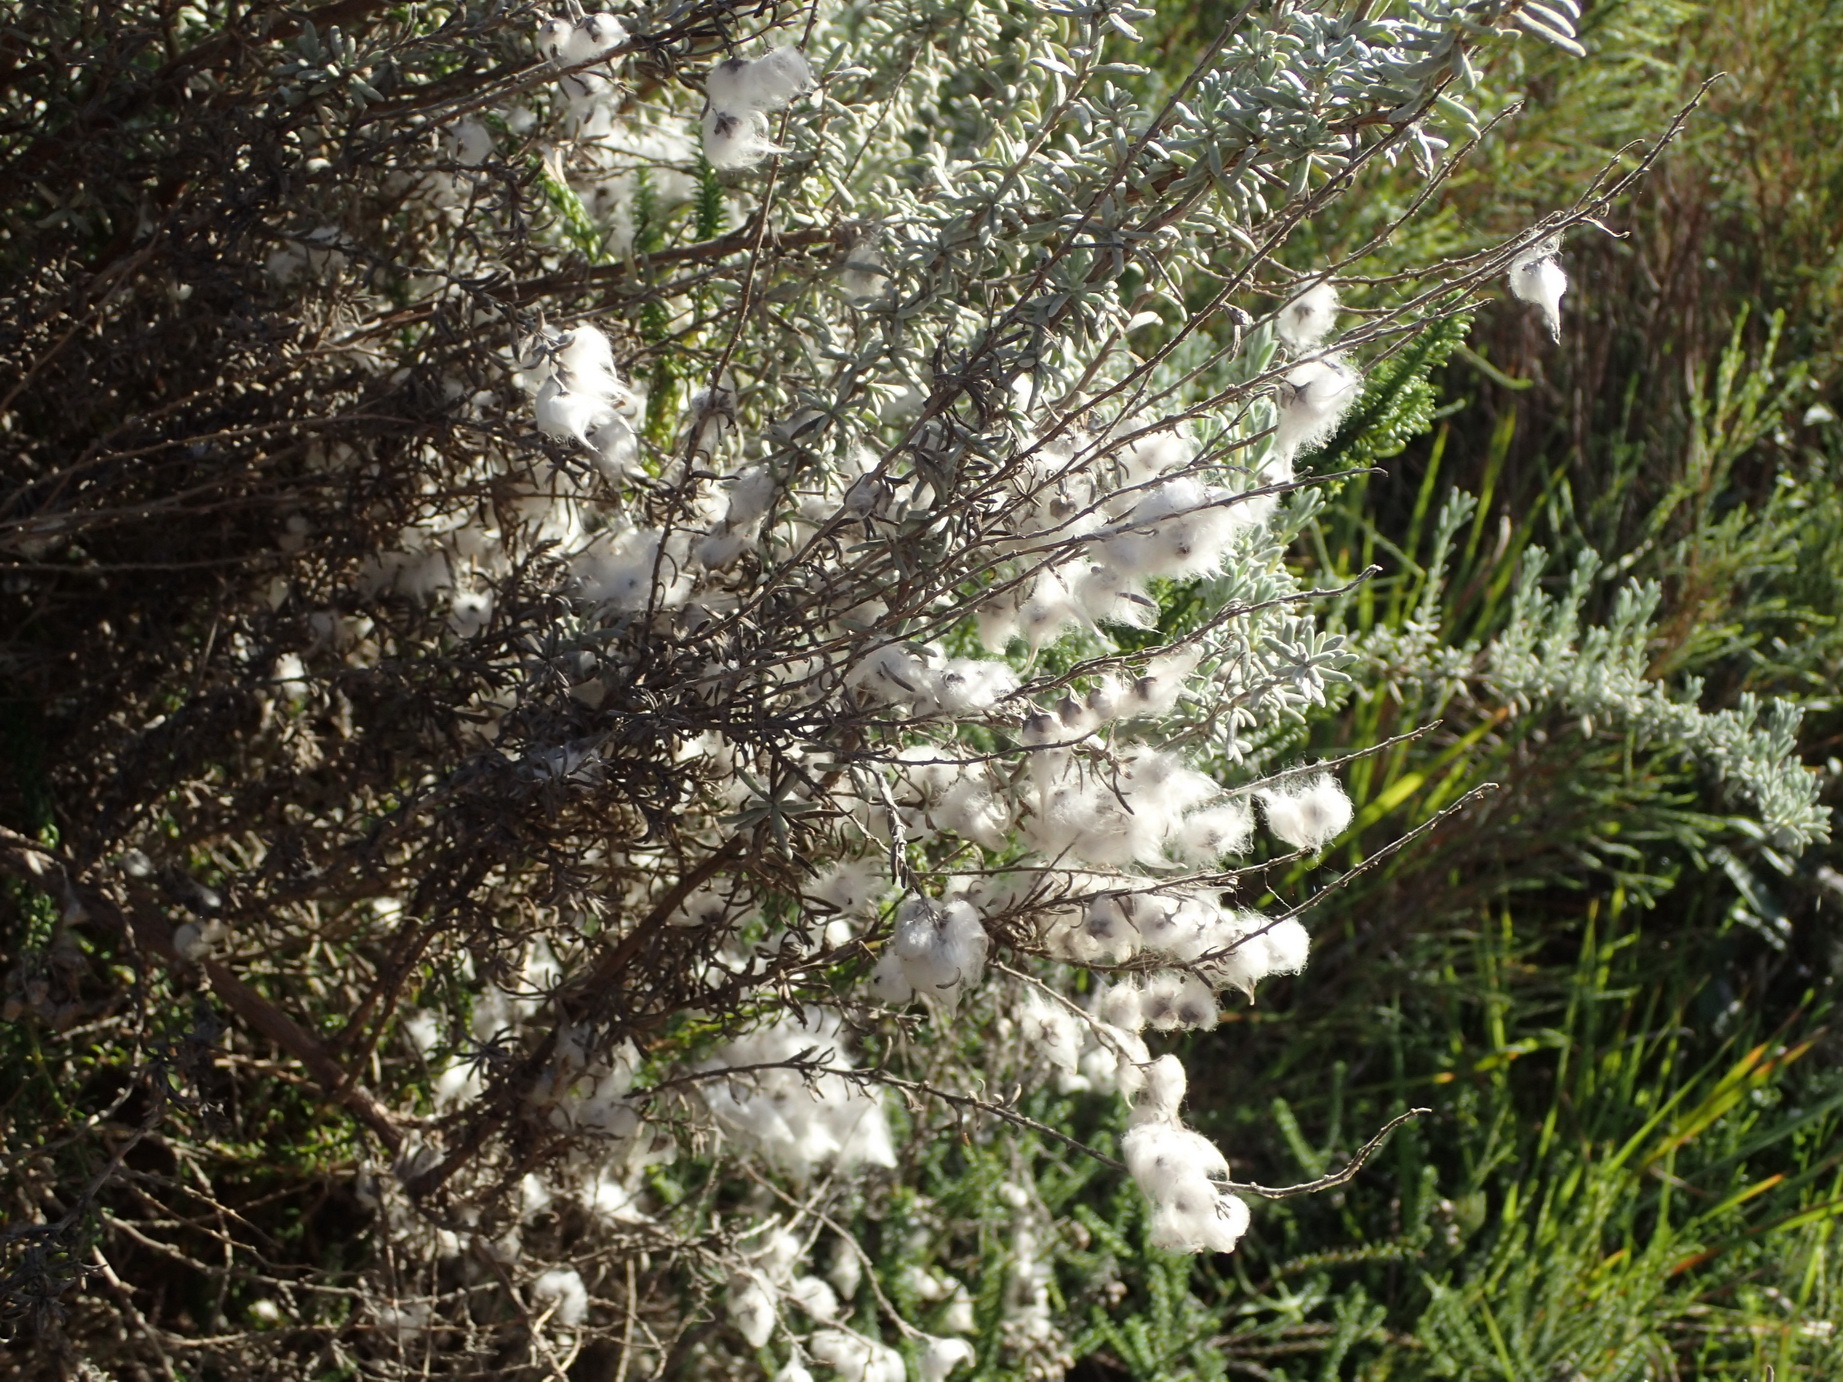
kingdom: Plantae
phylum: Tracheophyta
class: Magnoliopsida
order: Asterales
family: Asteraceae
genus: Eriocephalus
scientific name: Eriocephalus racemosus
